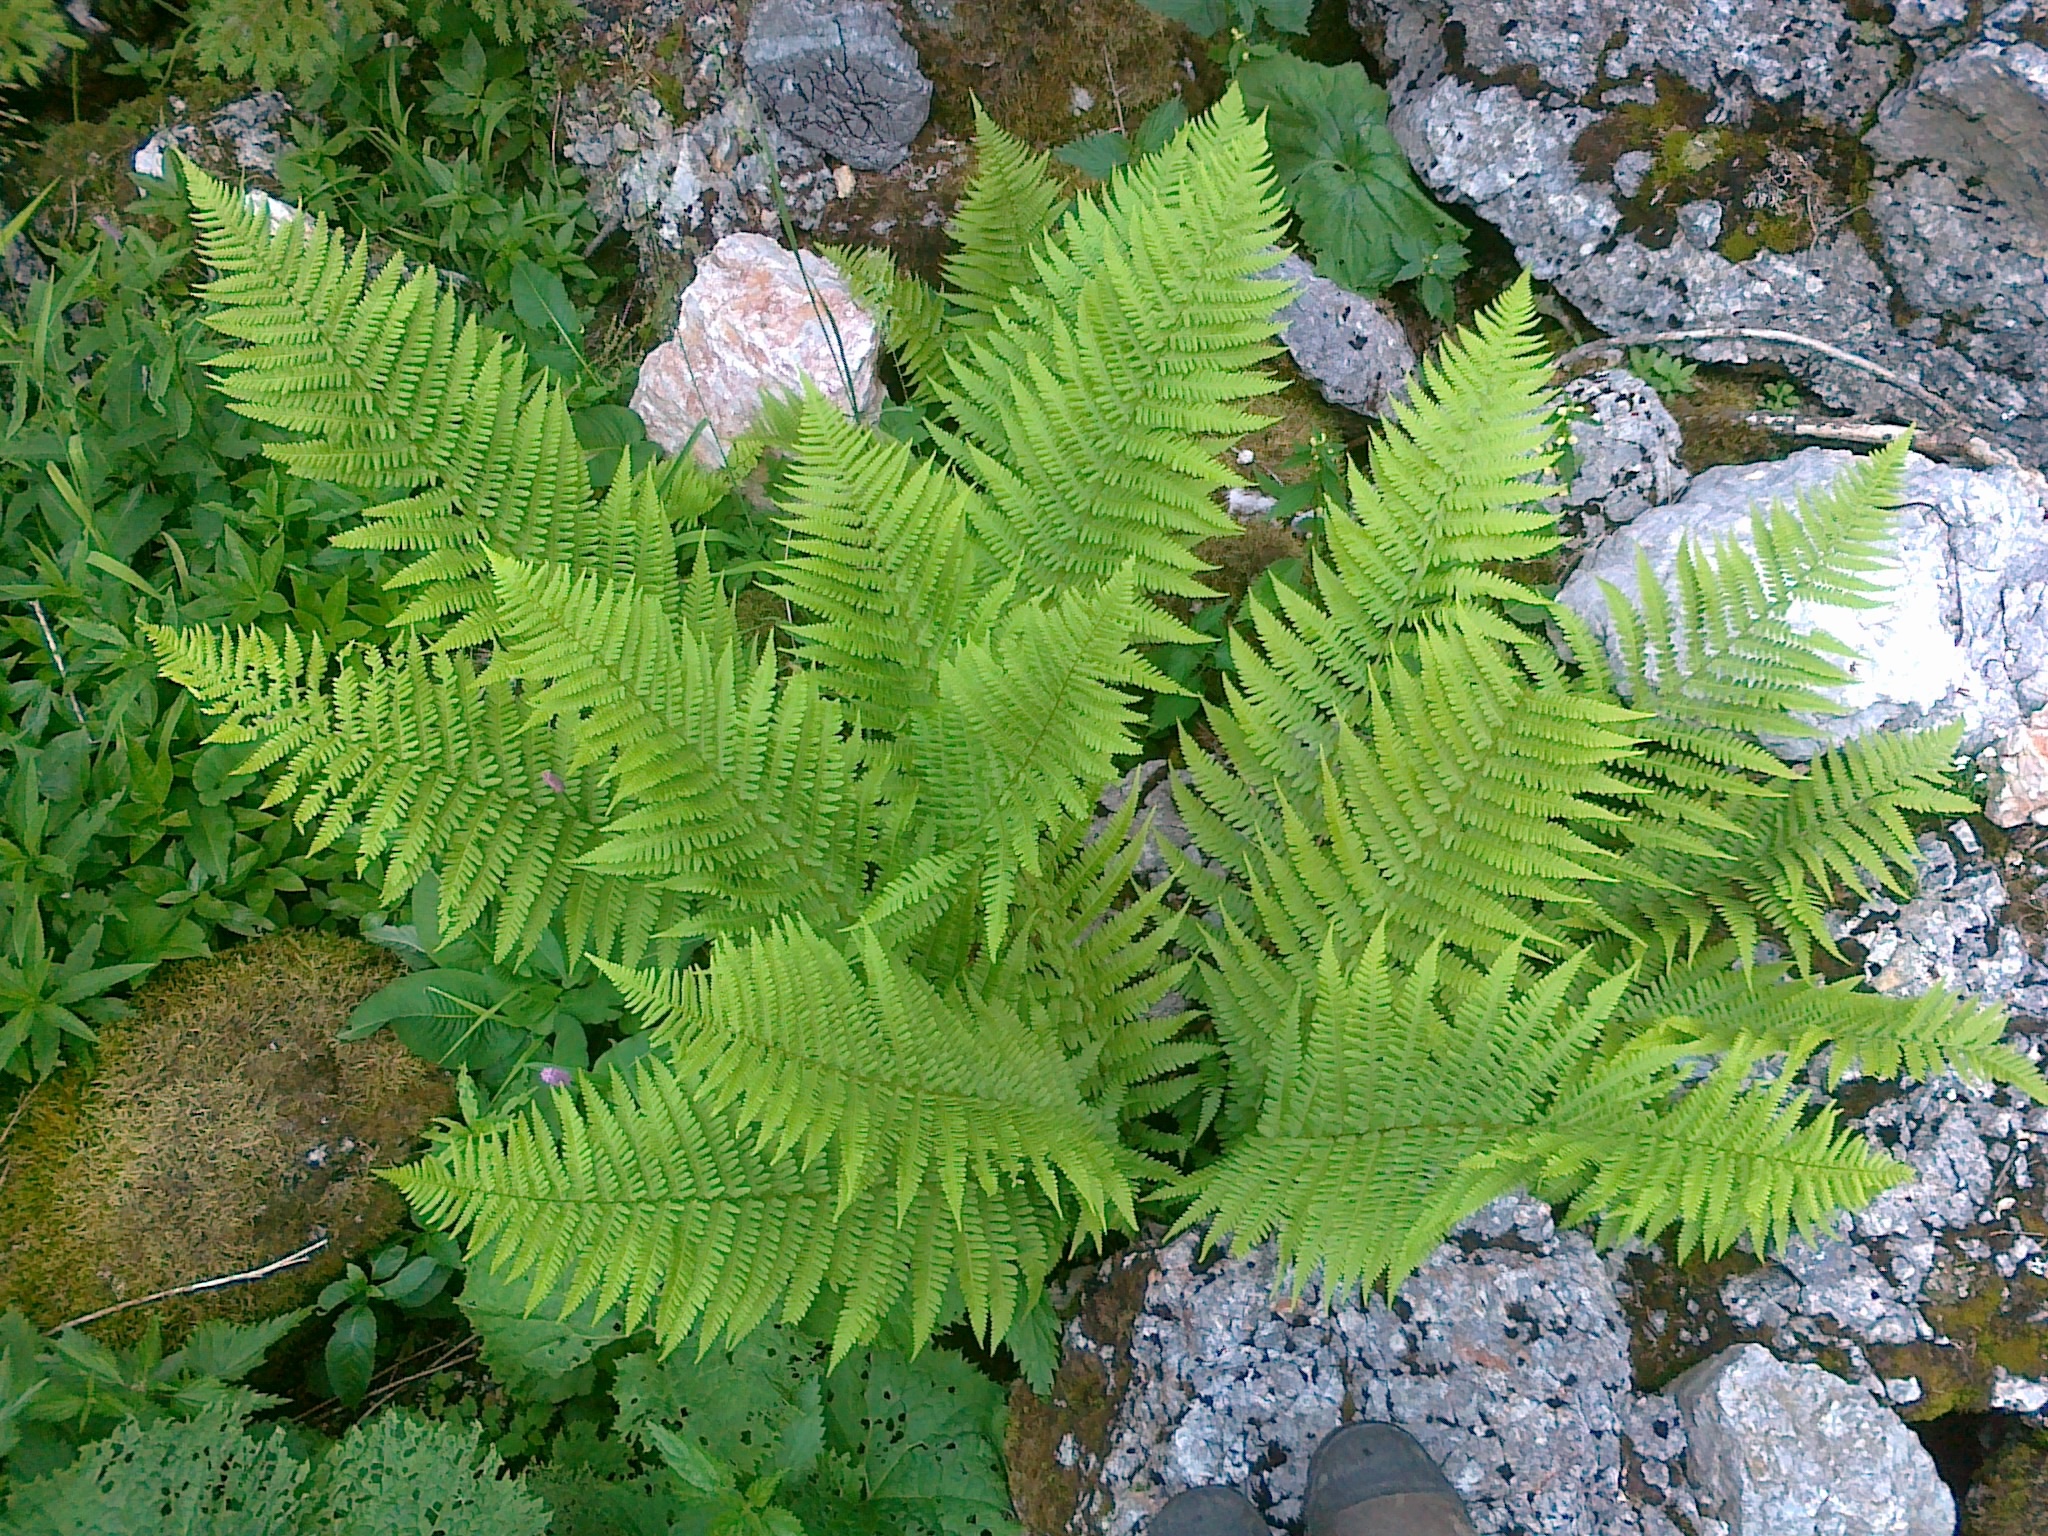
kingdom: Plantae
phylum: Tracheophyta
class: Polypodiopsida
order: Polypodiales
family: Dryopteridaceae
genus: Dryopteris
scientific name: Dryopteris filix-mas
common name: Male fern
